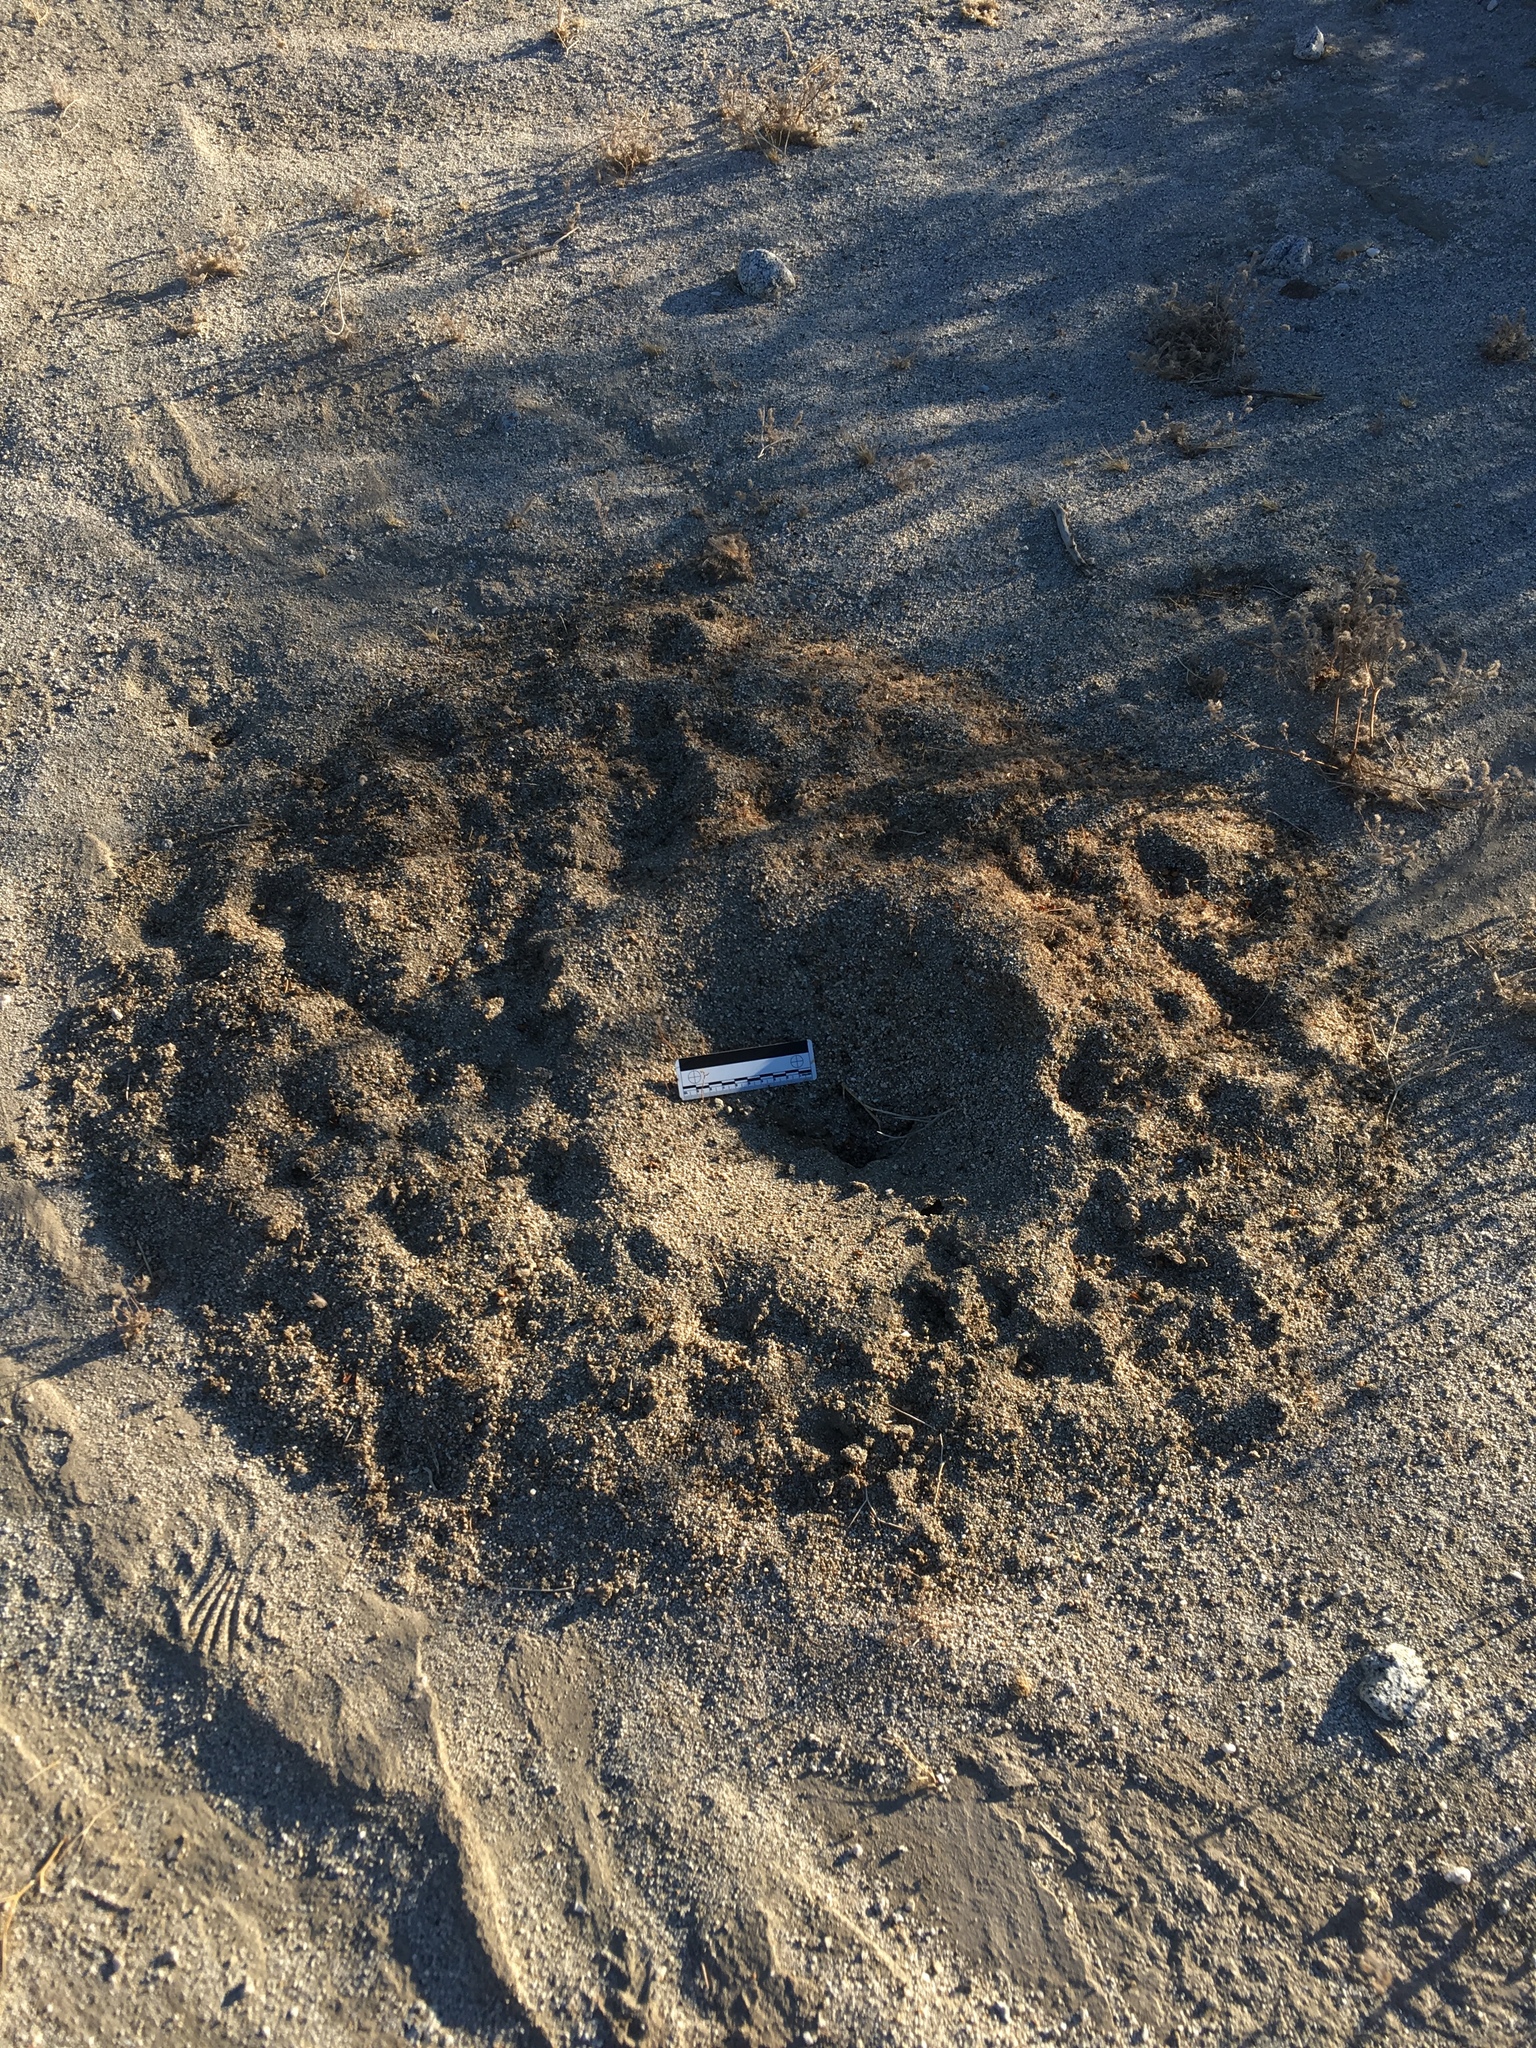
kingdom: Animalia
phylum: Arthropoda
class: Insecta
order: Hymenoptera
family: Formicidae
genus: Messor
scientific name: Messor pergandei
